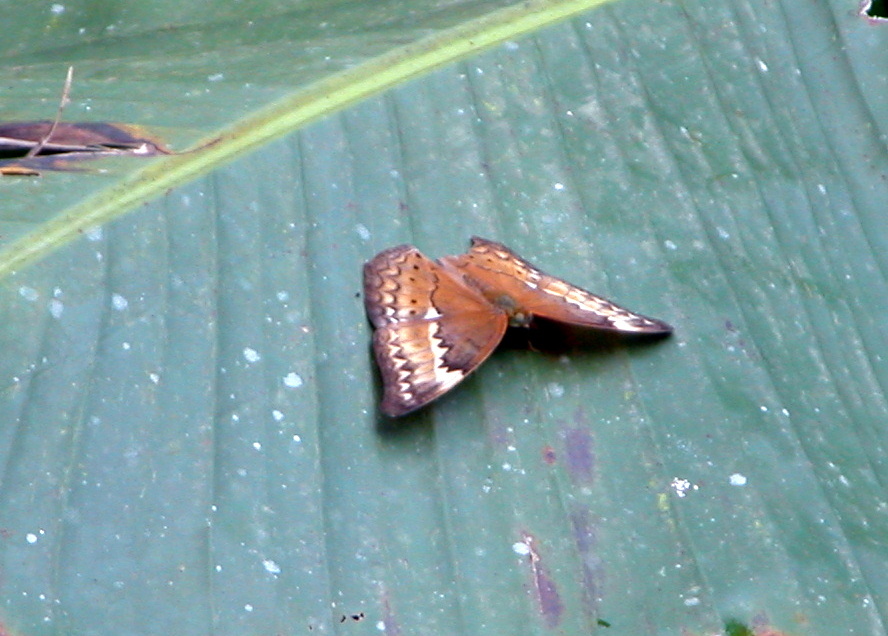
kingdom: Animalia
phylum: Arthropoda
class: Insecta
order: Lepidoptera
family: Nymphalidae
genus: Cirrochroa
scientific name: Cirrochroa aoris
